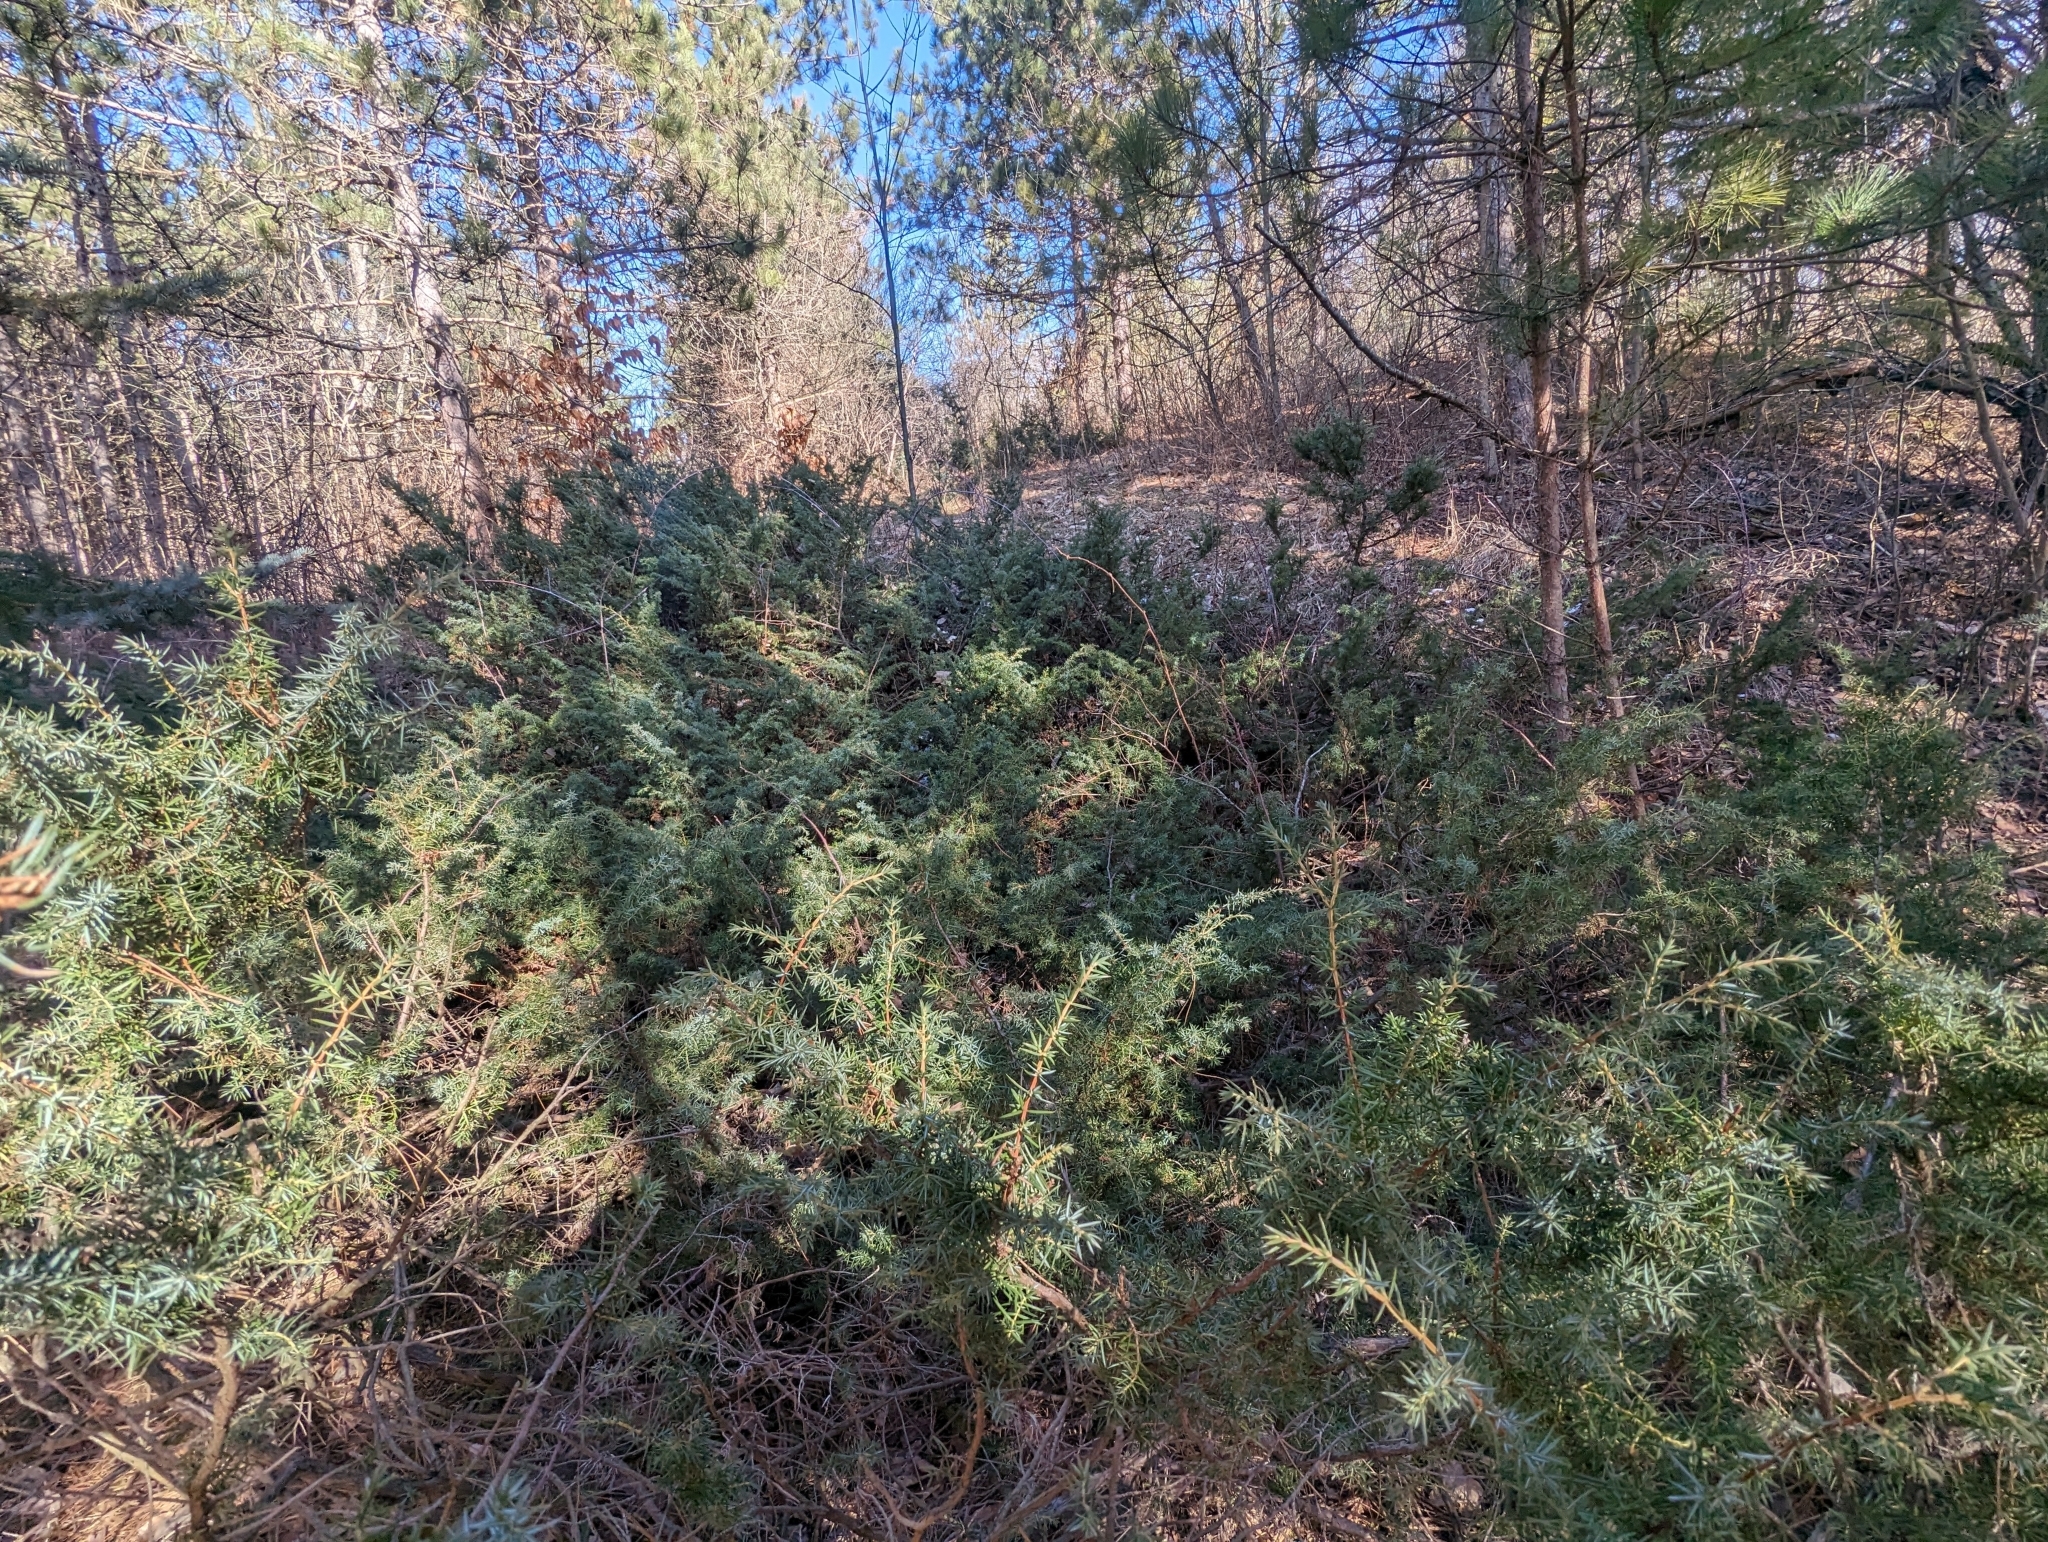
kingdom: Plantae
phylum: Tracheophyta
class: Pinopsida
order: Pinales
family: Cupressaceae
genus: Juniperus
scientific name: Juniperus communis
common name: Common juniper
